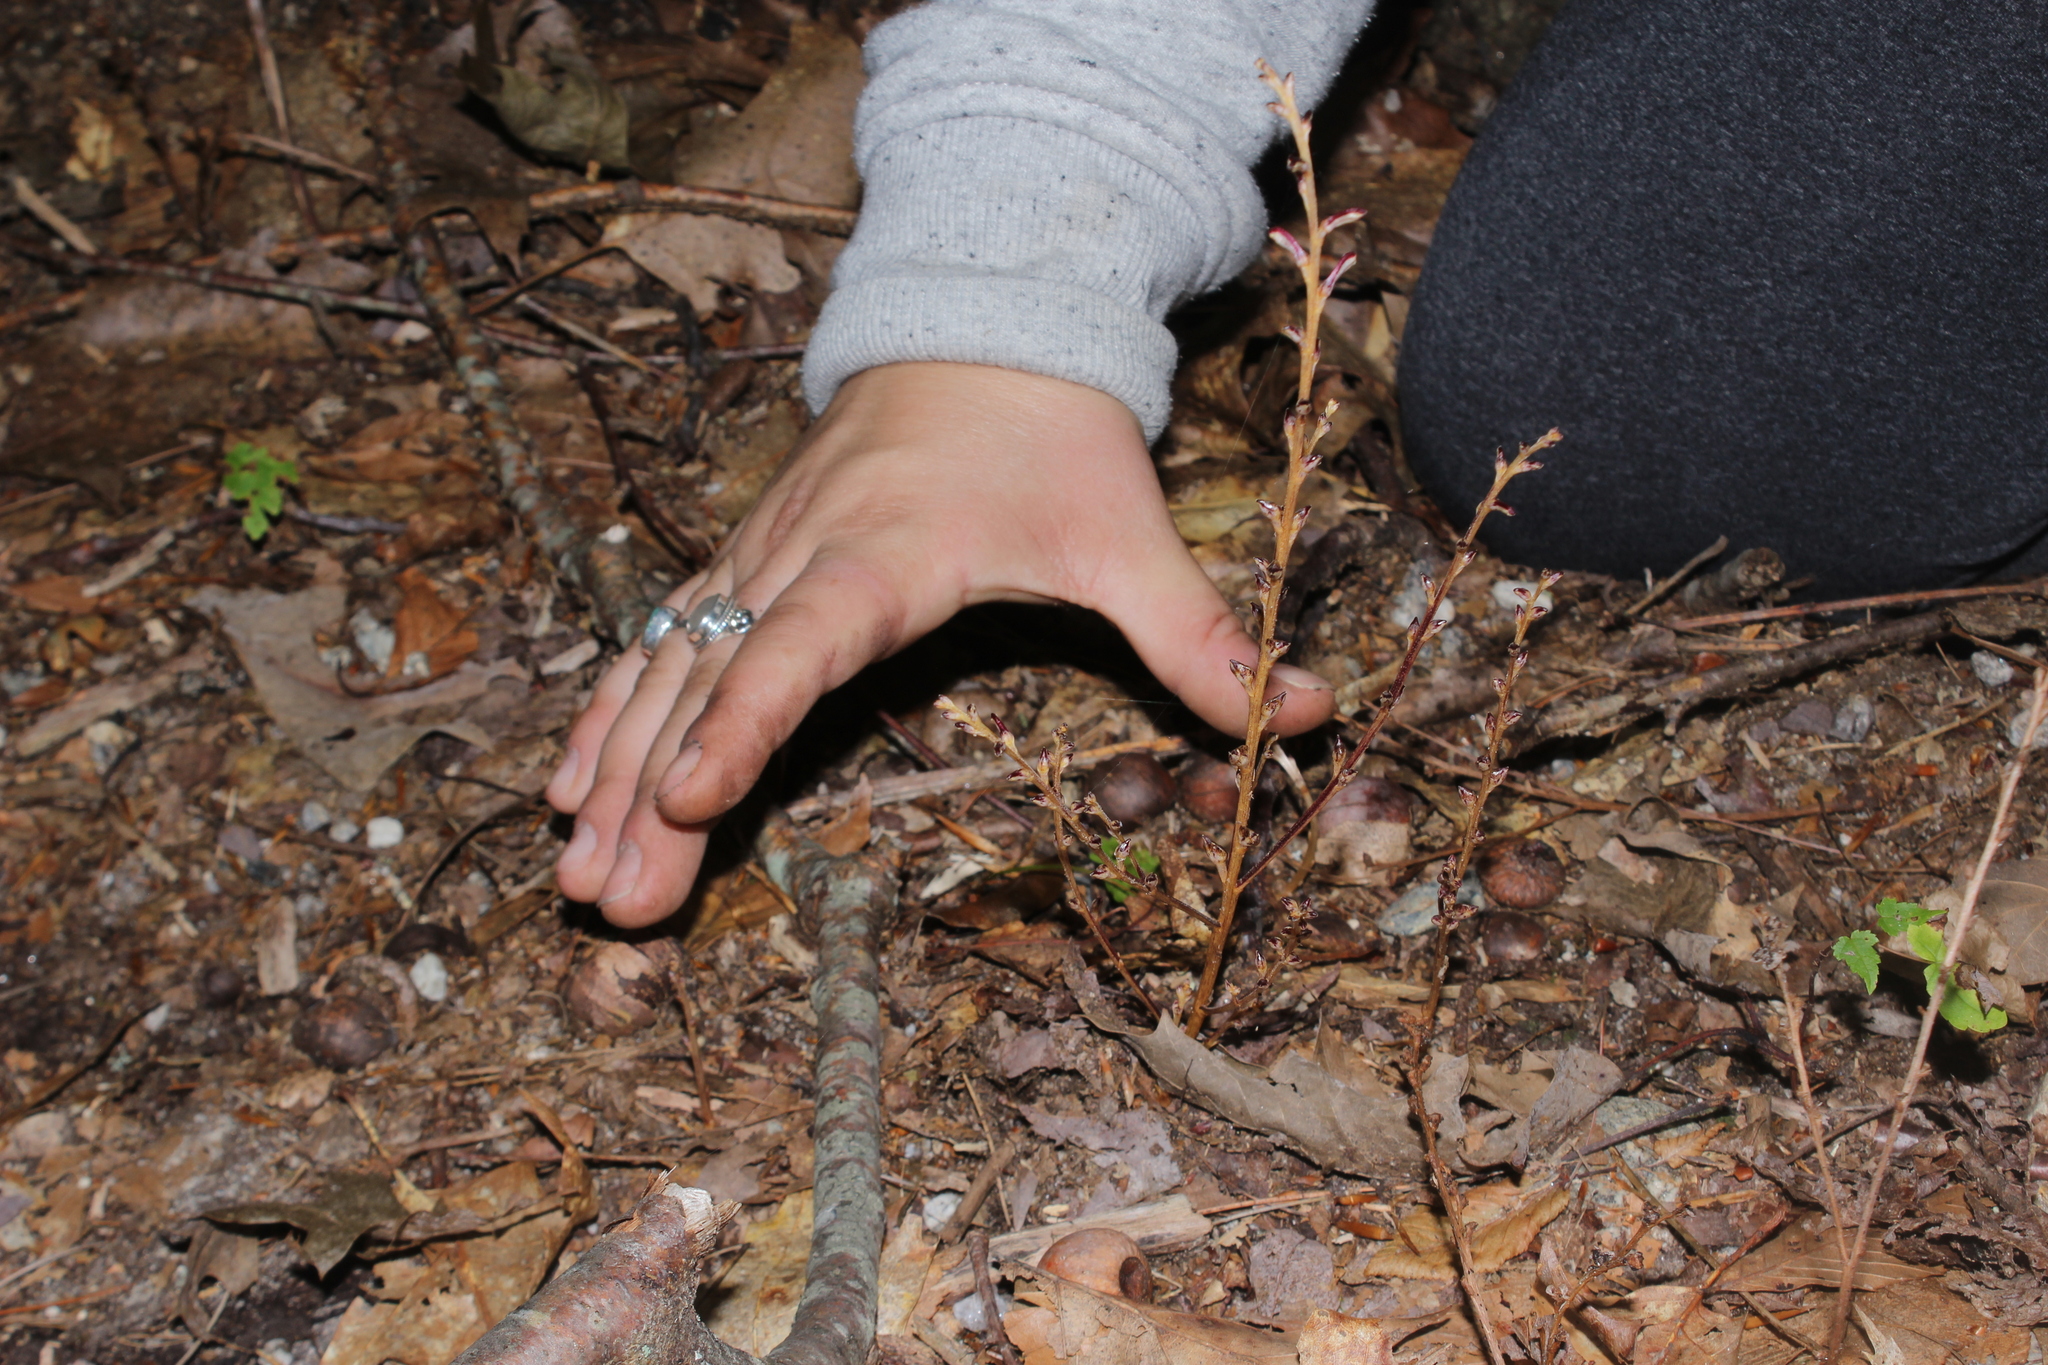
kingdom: Plantae
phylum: Tracheophyta
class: Magnoliopsida
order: Lamiales
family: Orobanchaceae
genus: Epifagus
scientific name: Epifagus virginiana
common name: Beechdrops
